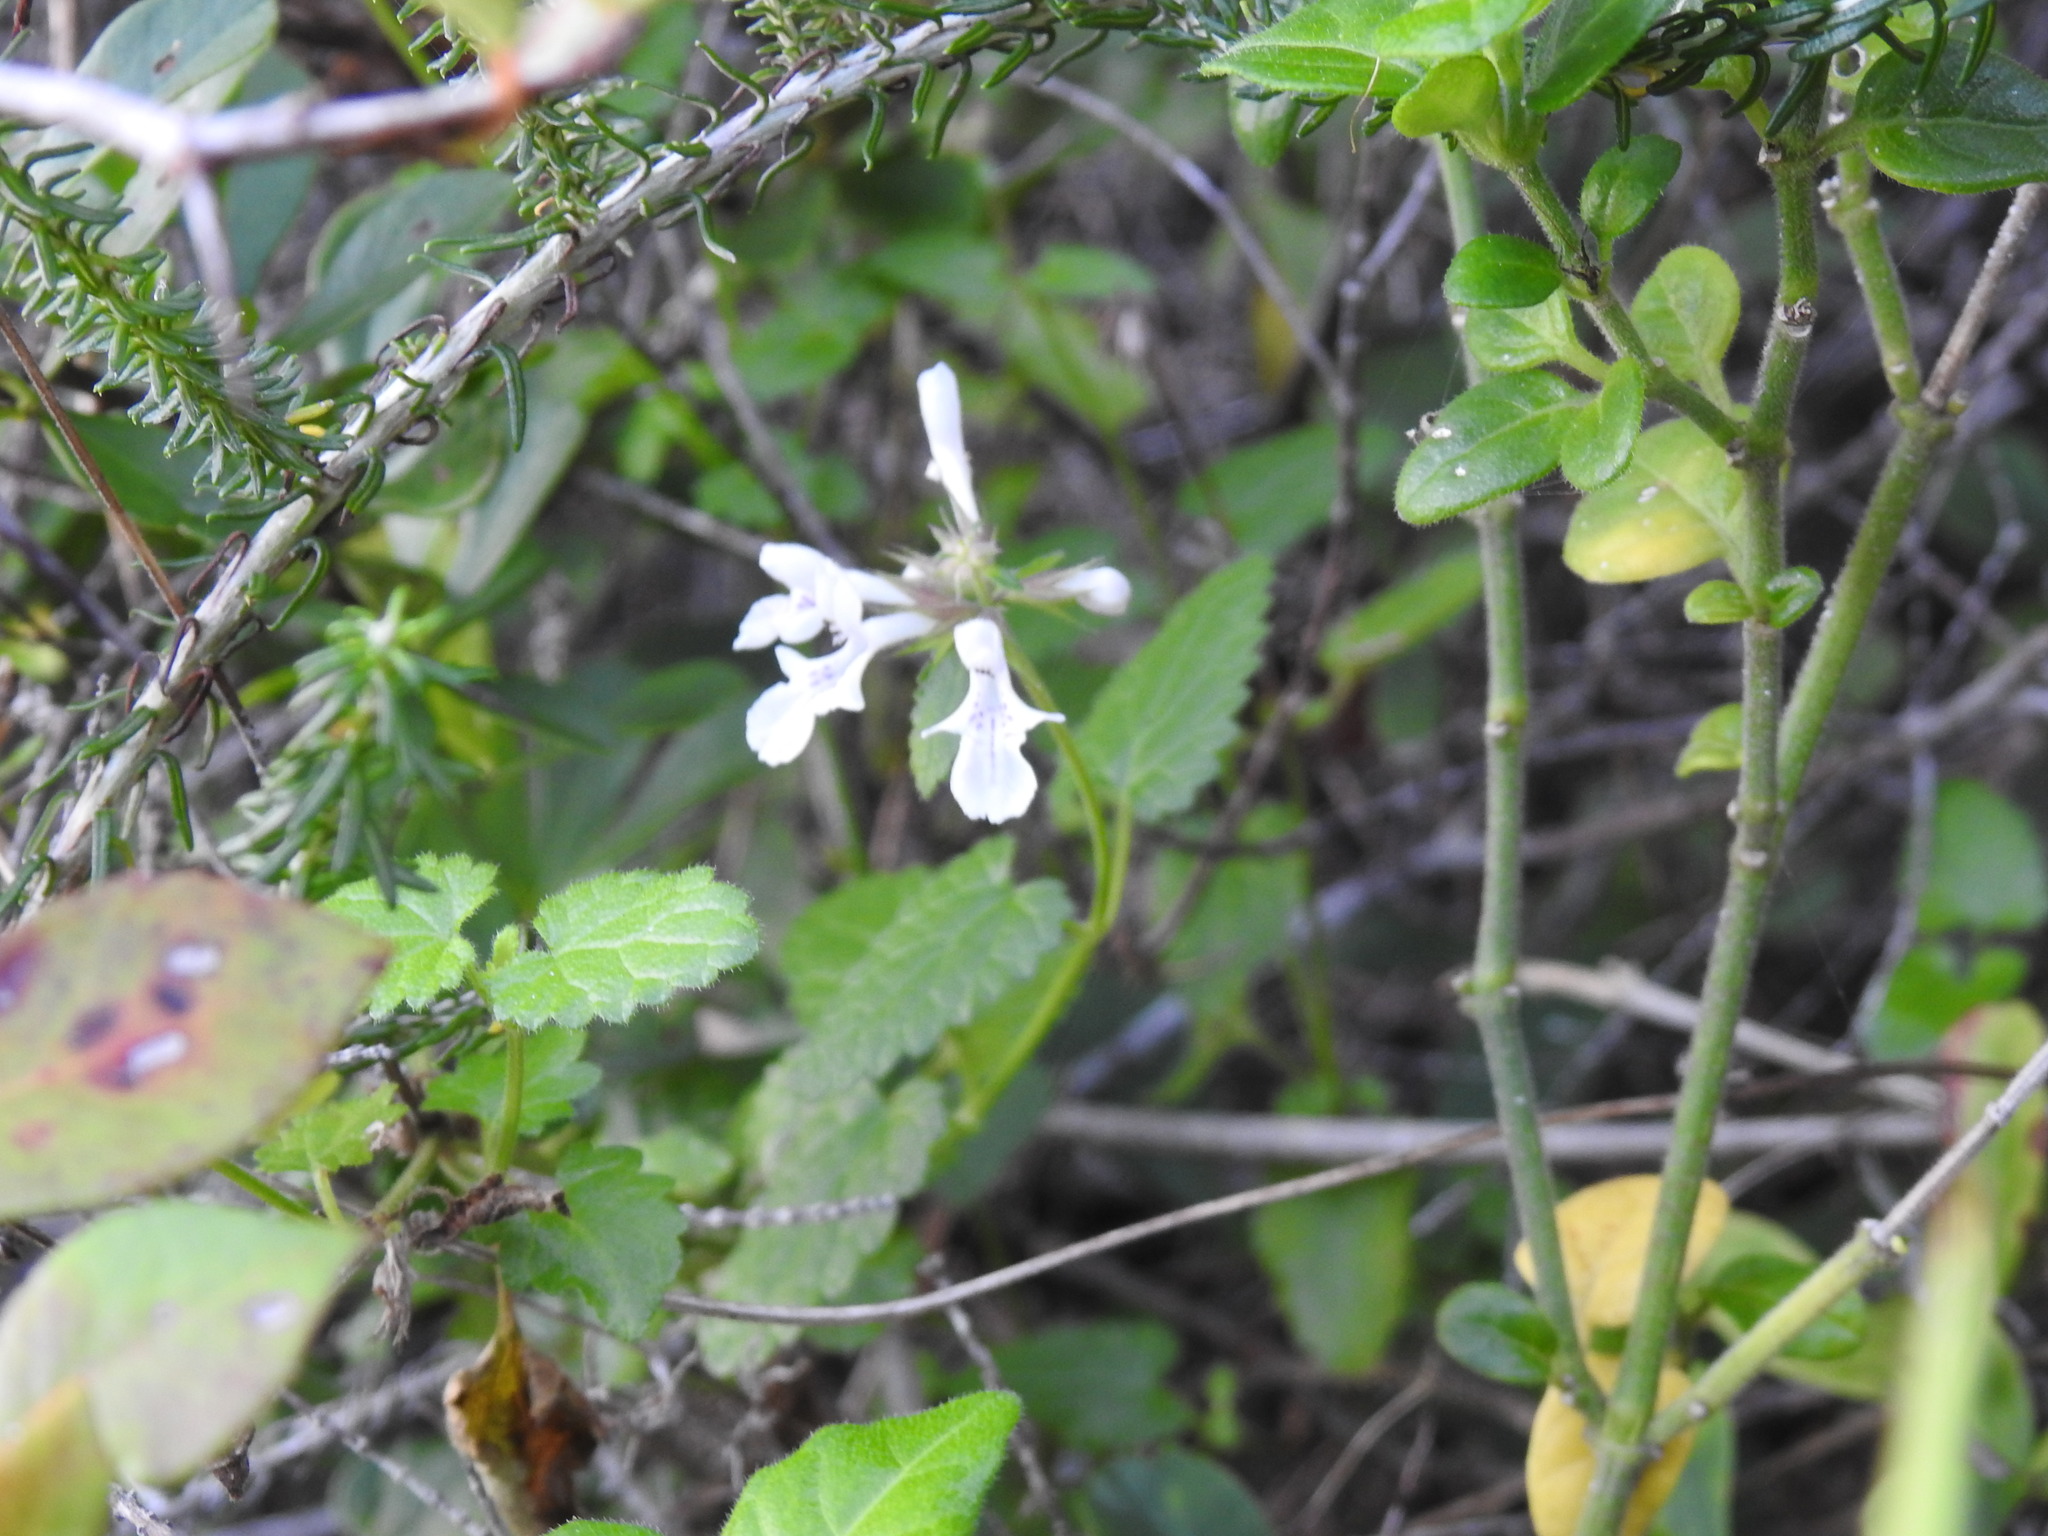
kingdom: Plantae
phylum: Tracheophyta
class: Magnoliopsida
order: Lamiales
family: Lamiaceae
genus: Stachys
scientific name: Stachys aethiopica
